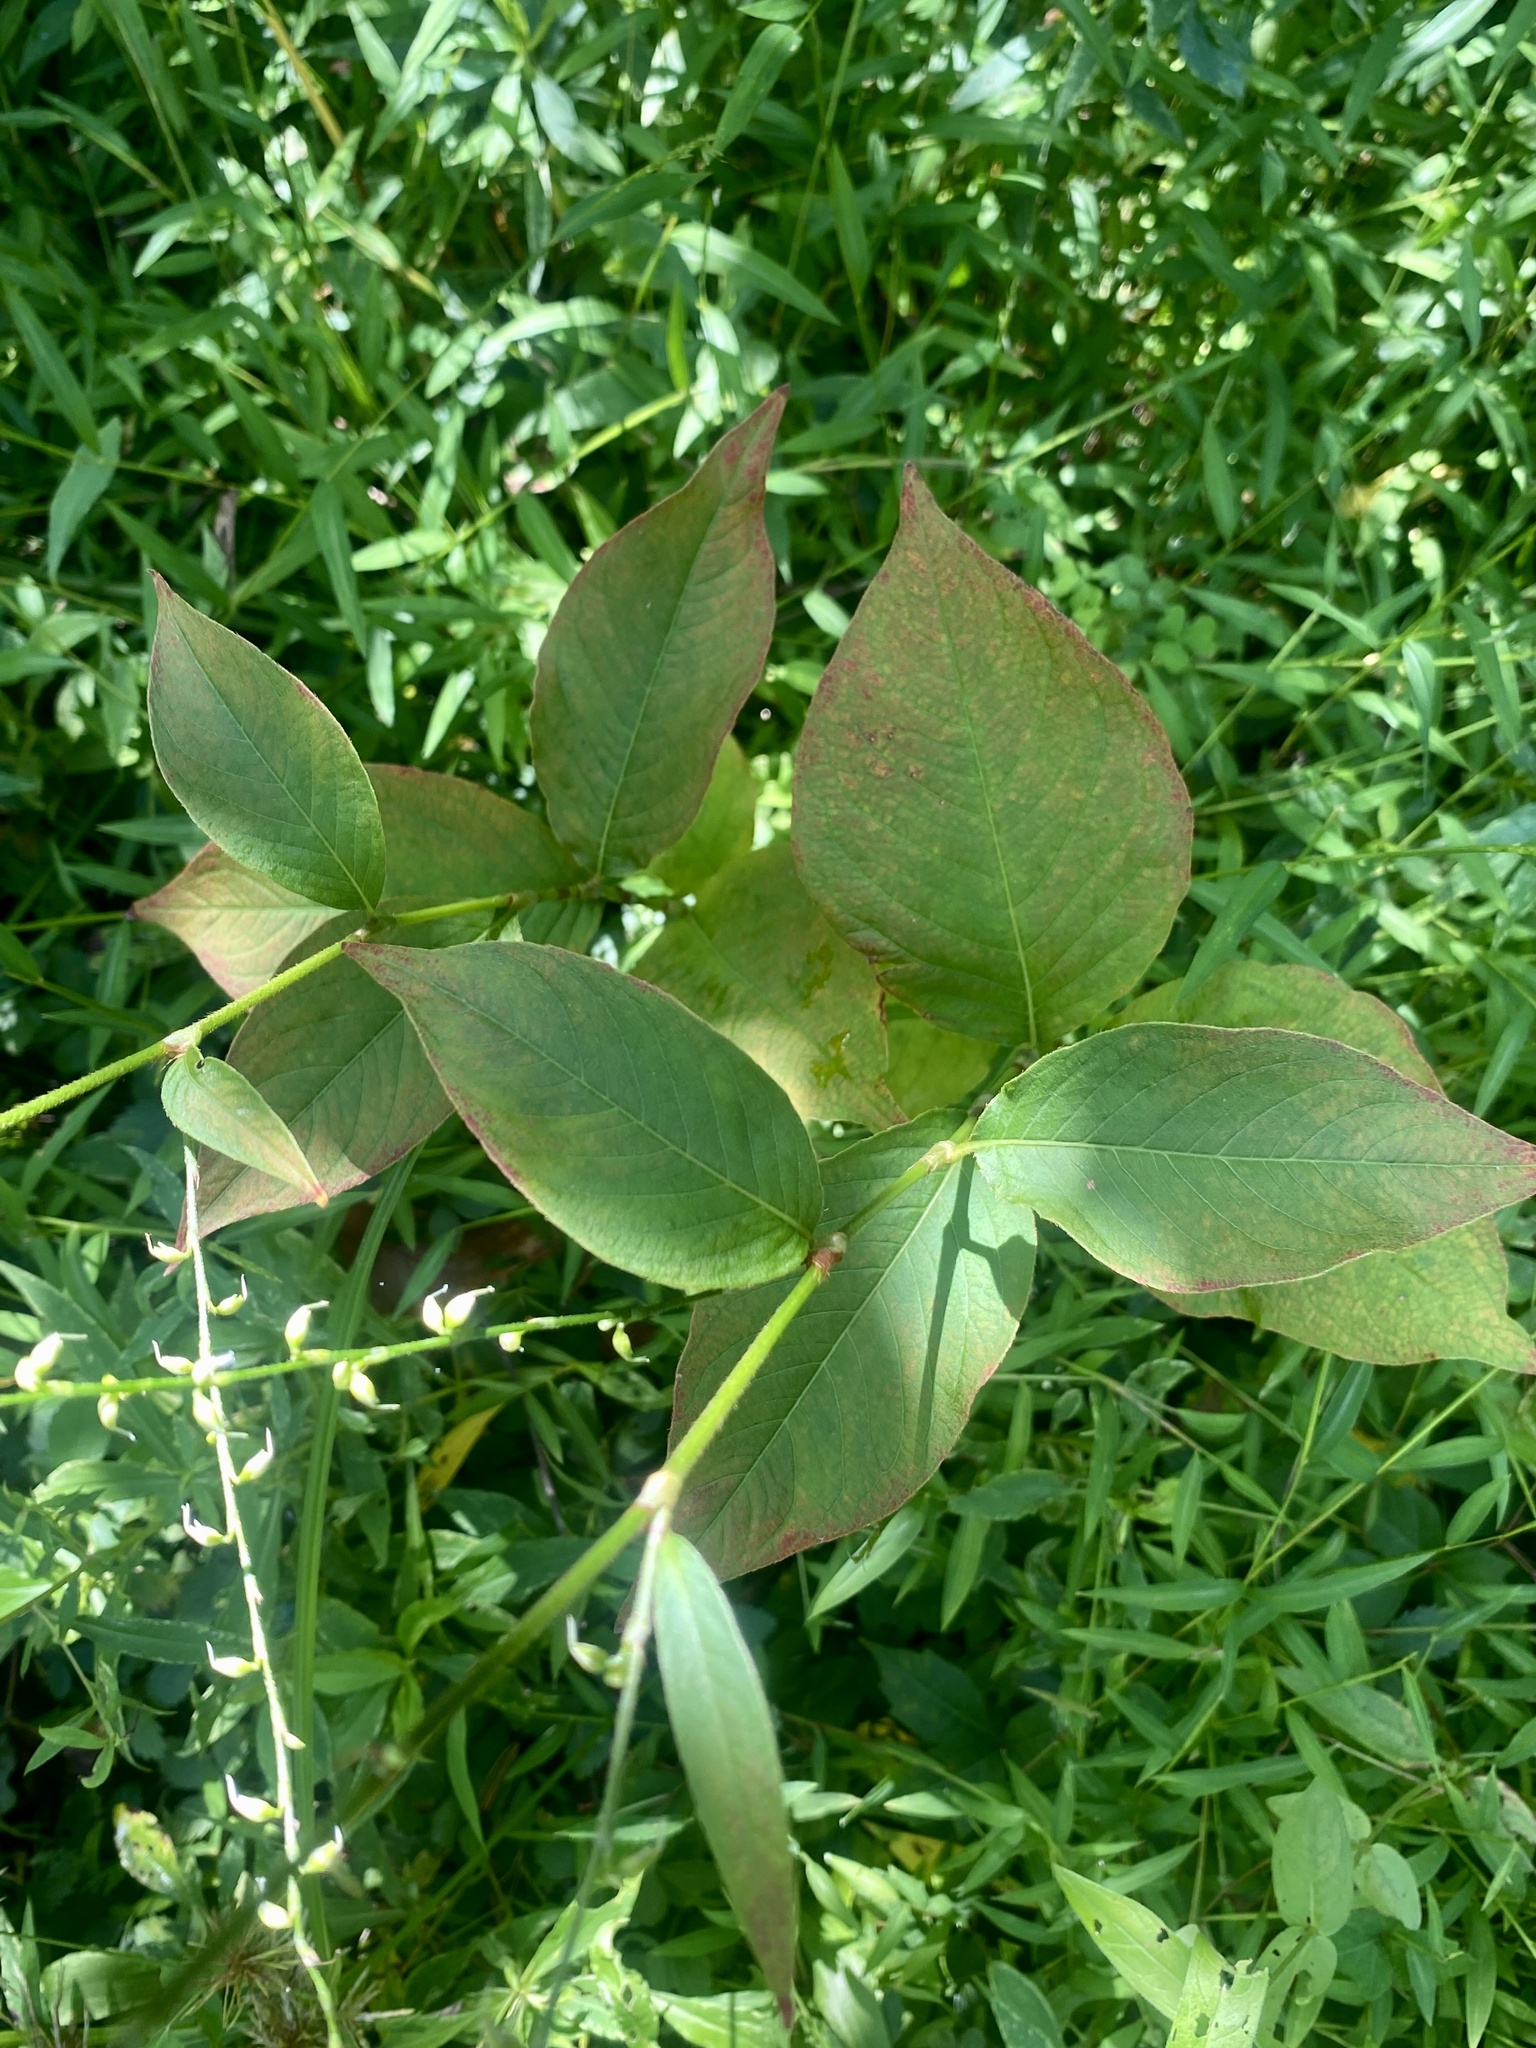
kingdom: Plantae
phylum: Tracheophyta
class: Magnoliopsida
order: Caryophyllales
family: Polygonaceae
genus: Persicaria
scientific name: Persicaria virginiana
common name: Jumpseed
